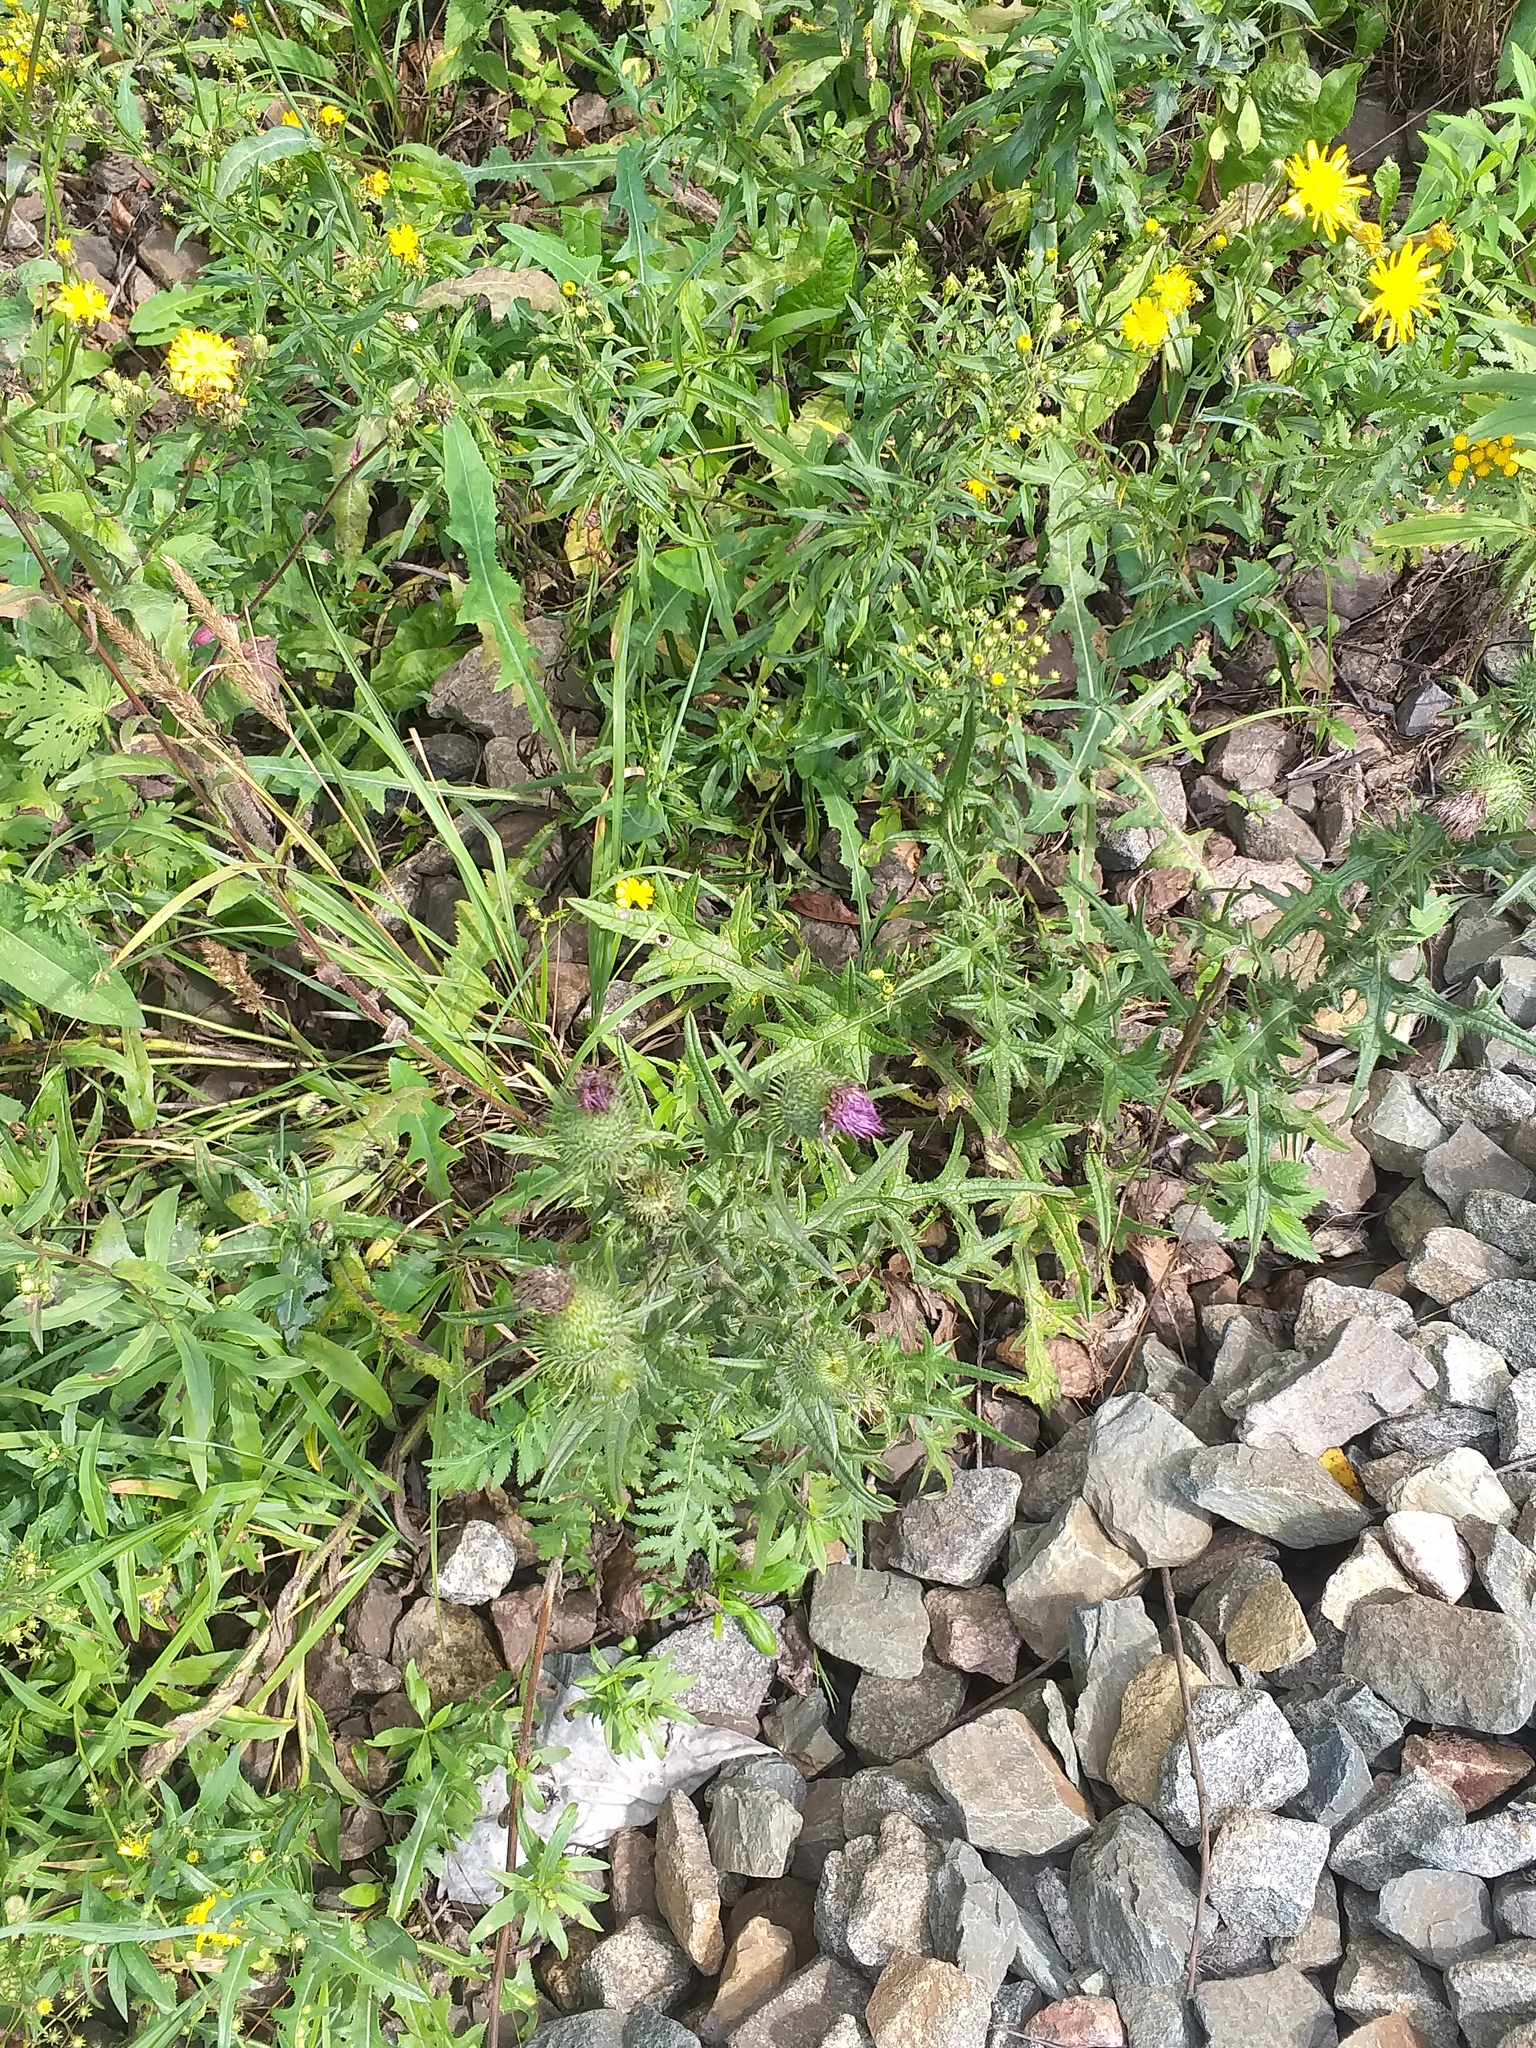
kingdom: Plantae
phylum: Tracheophyta
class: Magnoliopsida
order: Asterales
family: Asteraceae
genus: Cirsium
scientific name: Cirsium vulgare
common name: Bull thistle
